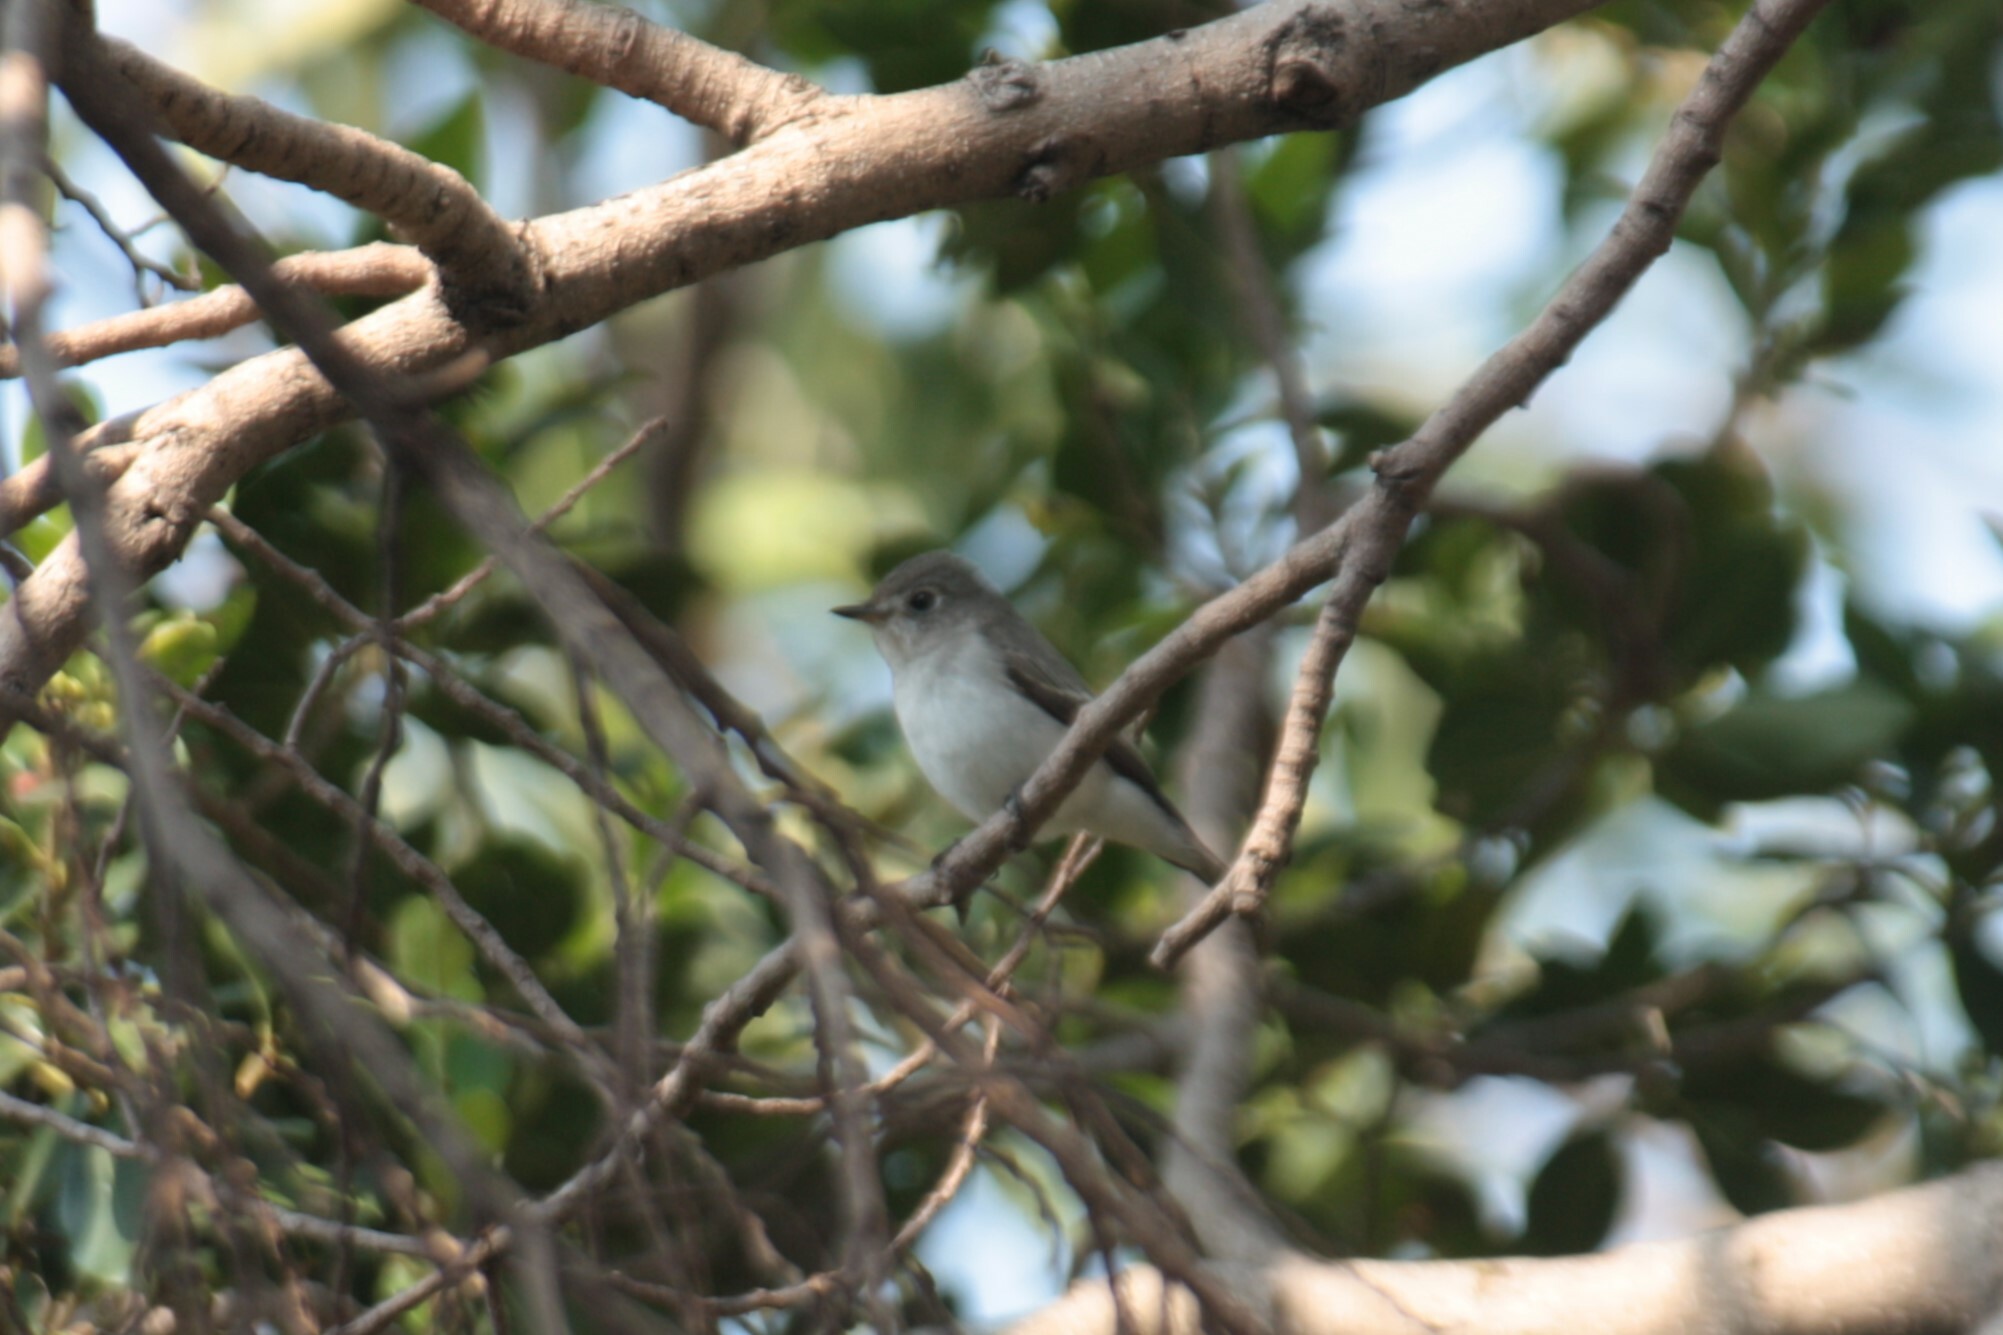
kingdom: Animalia
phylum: Chordata
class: Aves
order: Passeriformes
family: Muscicapidae
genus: Muscicapa
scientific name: Muscicapa latirostris
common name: Asian brown flycatcher
